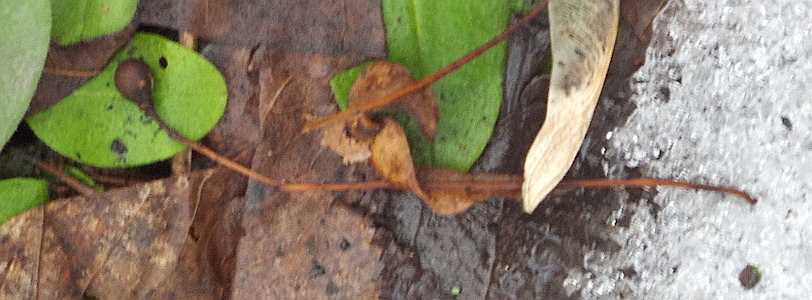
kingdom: Plantae
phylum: Tracheophyta
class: Magnoliopsida
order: Malvales
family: Malvaceae
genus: Tilia
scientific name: Tilia cordata
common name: Small-leaved lime
